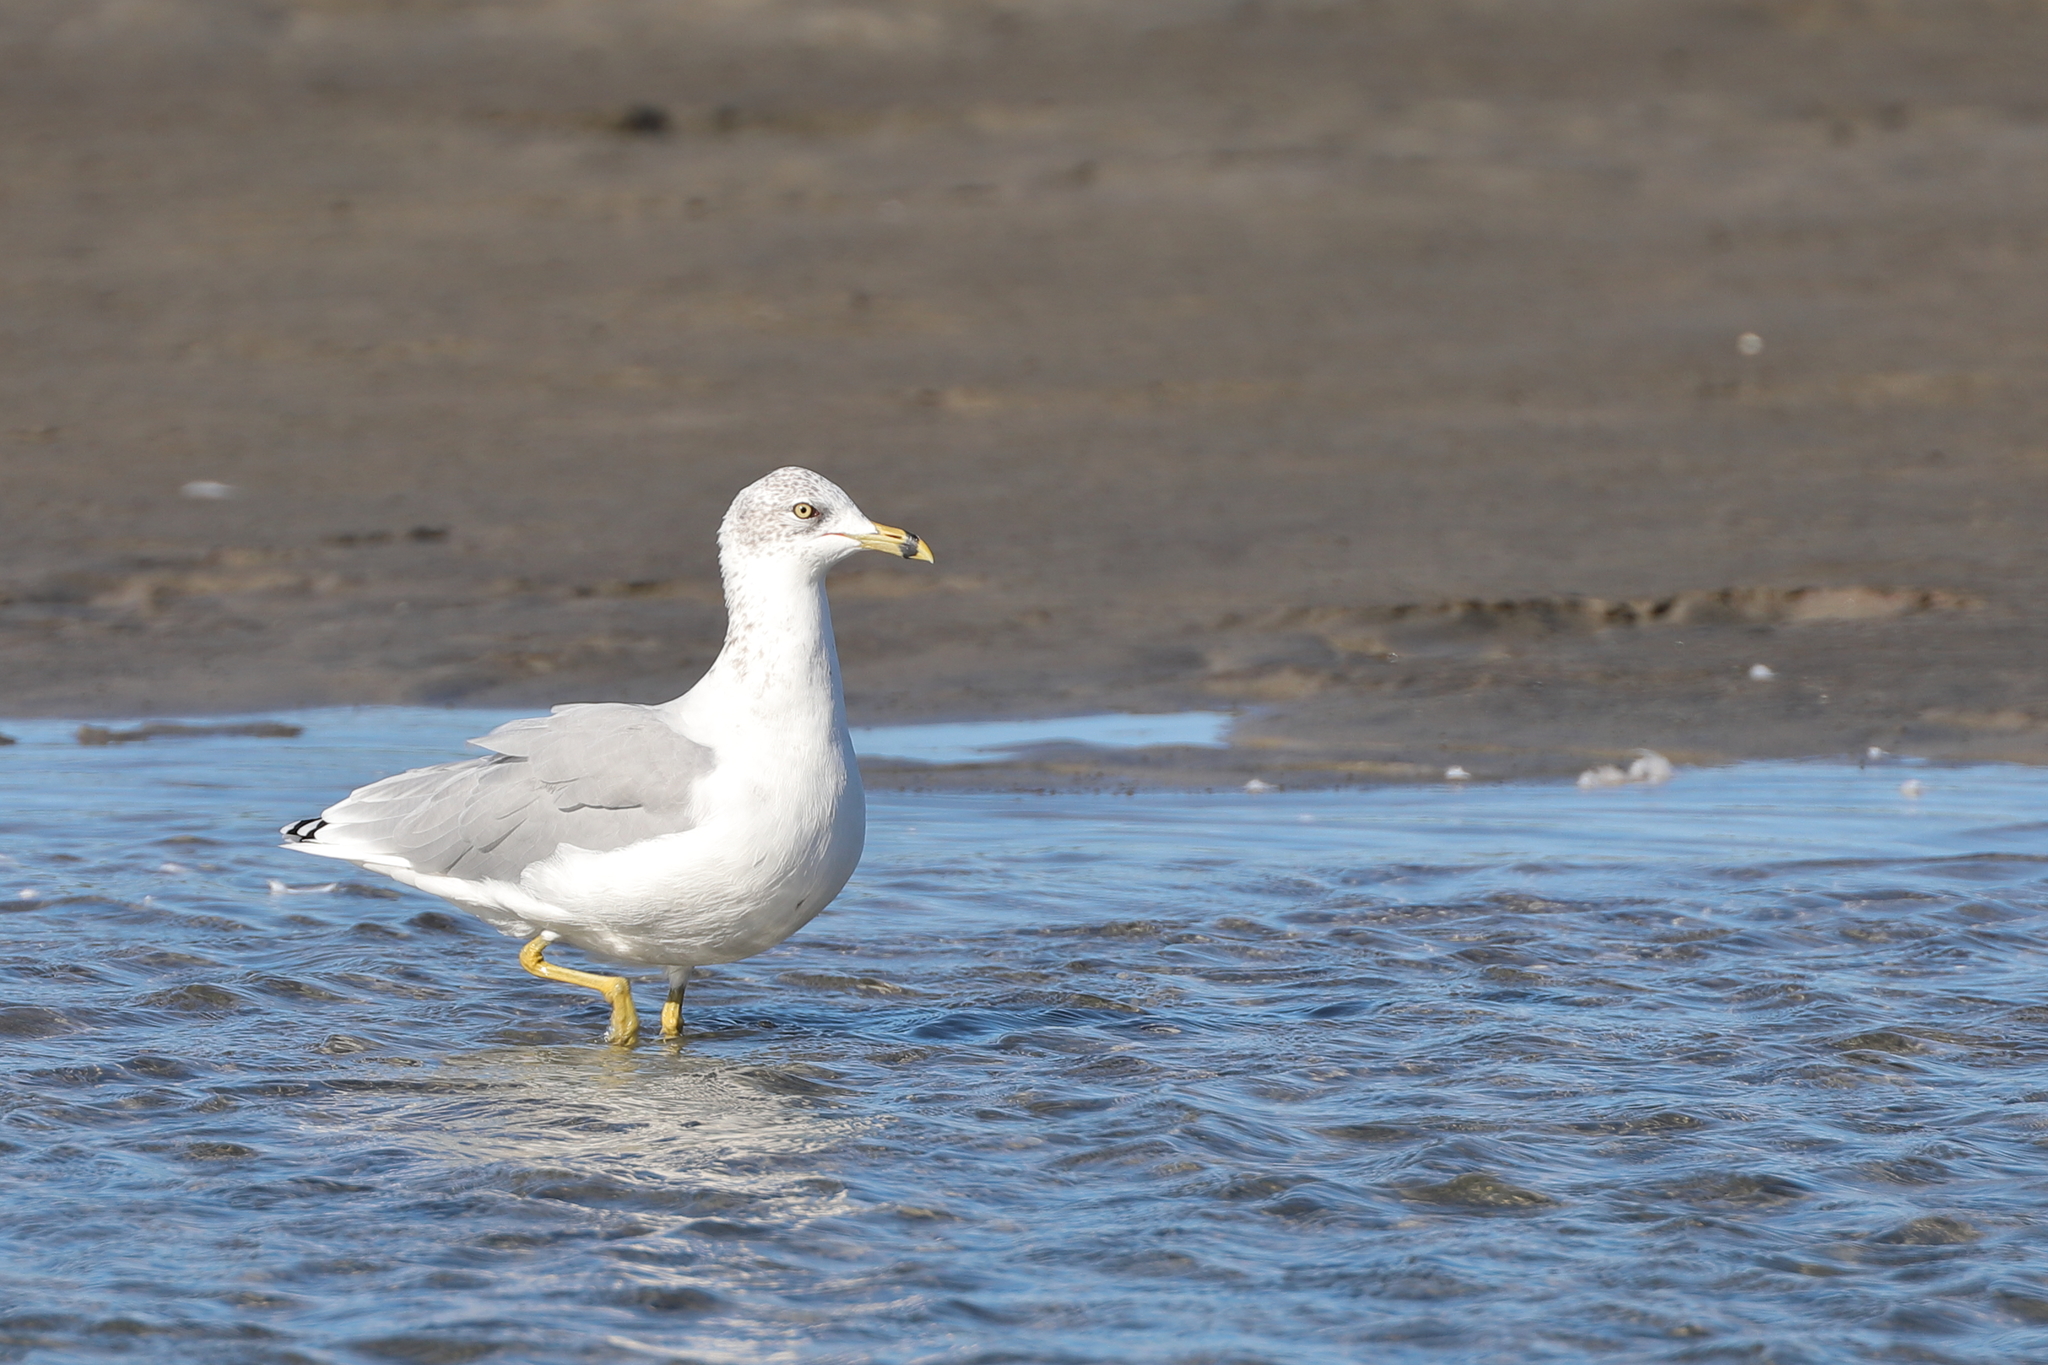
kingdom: Animalia
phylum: Chordata
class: Aves
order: Charadriiformes
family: Laridae
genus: Larus
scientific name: Larus delawarensis
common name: Ring-billed gull
